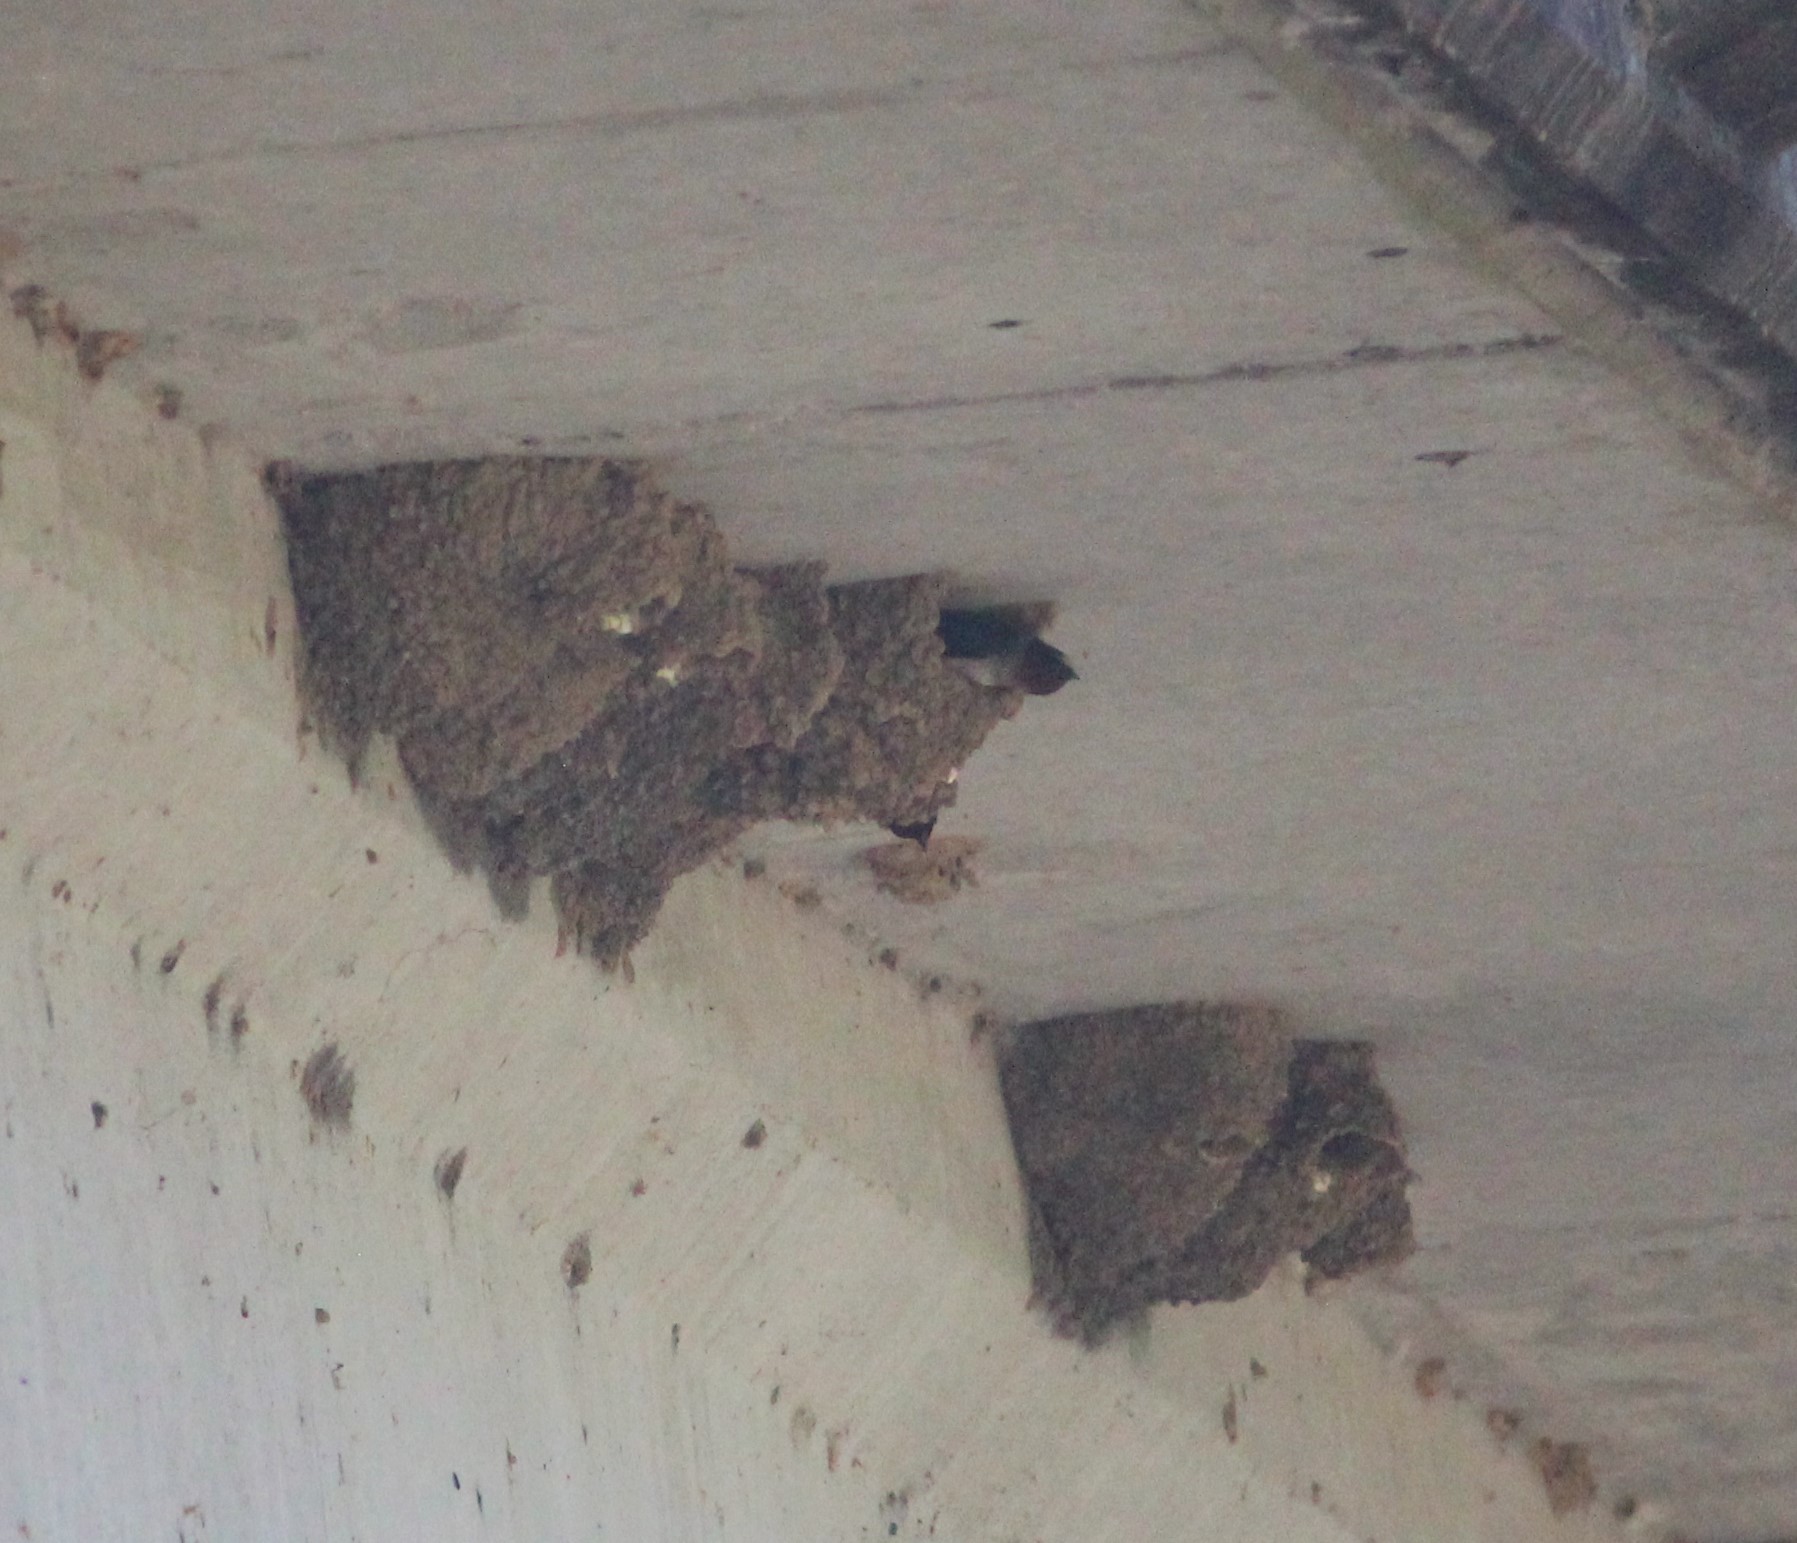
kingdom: Animalia
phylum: Chordata
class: Aves
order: Passeriformes
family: Hirundinidae
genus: Petrochelidon
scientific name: Petrochelidon pyrrhonota
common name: American cliff swallow
